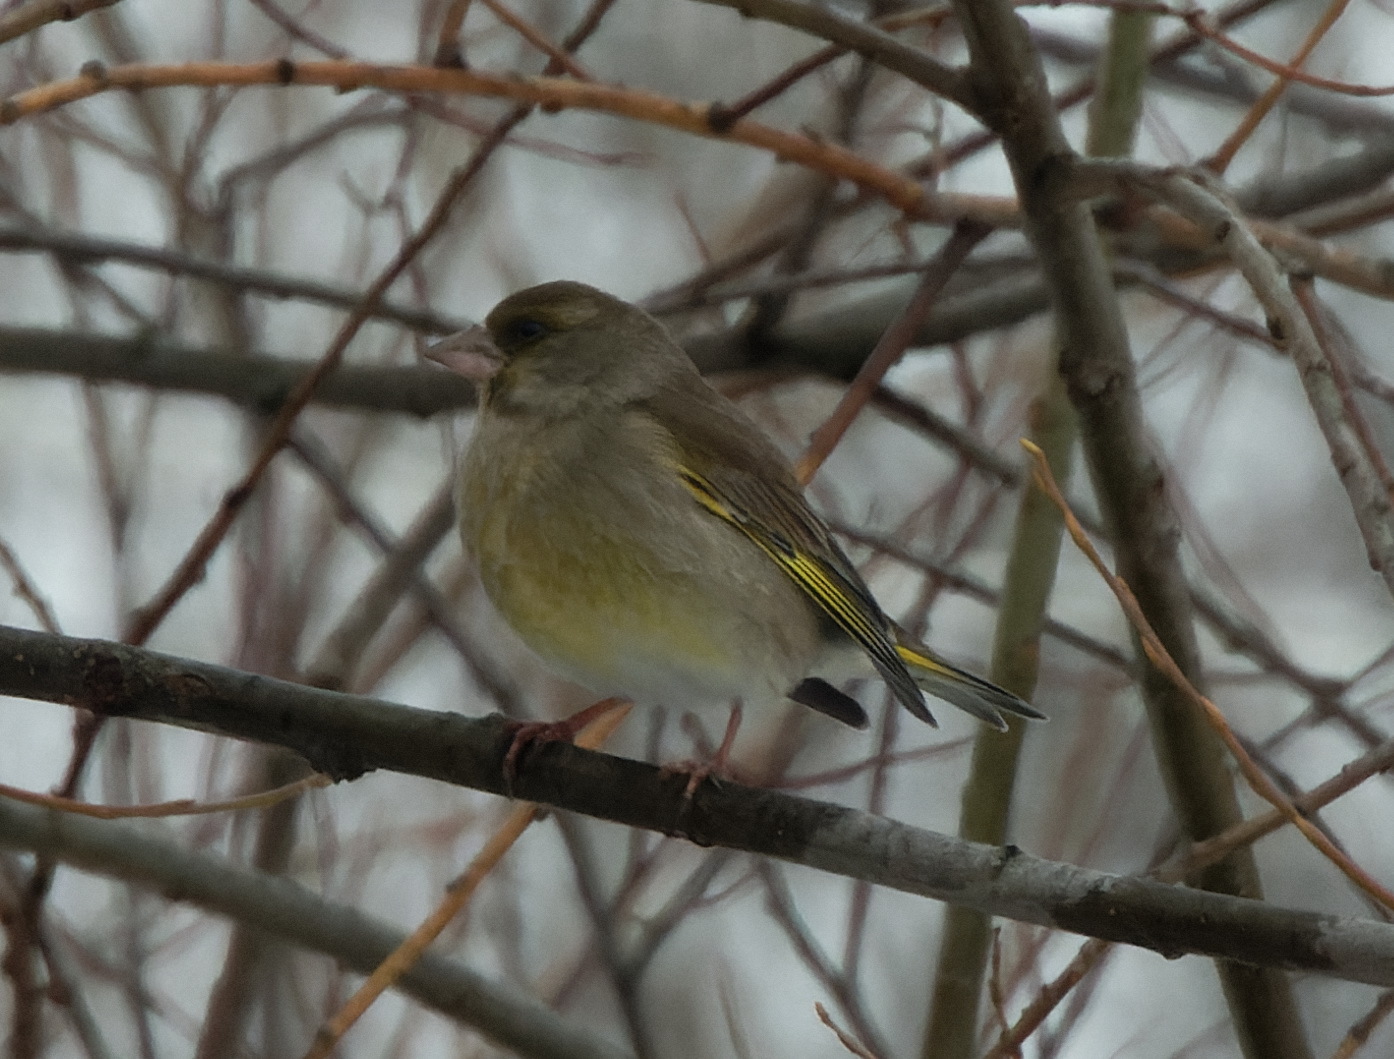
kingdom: Plantae
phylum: Tracheophyta
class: Liliopsida
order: Poales
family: Poaceae
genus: Chloris
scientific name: Chloris chloris
